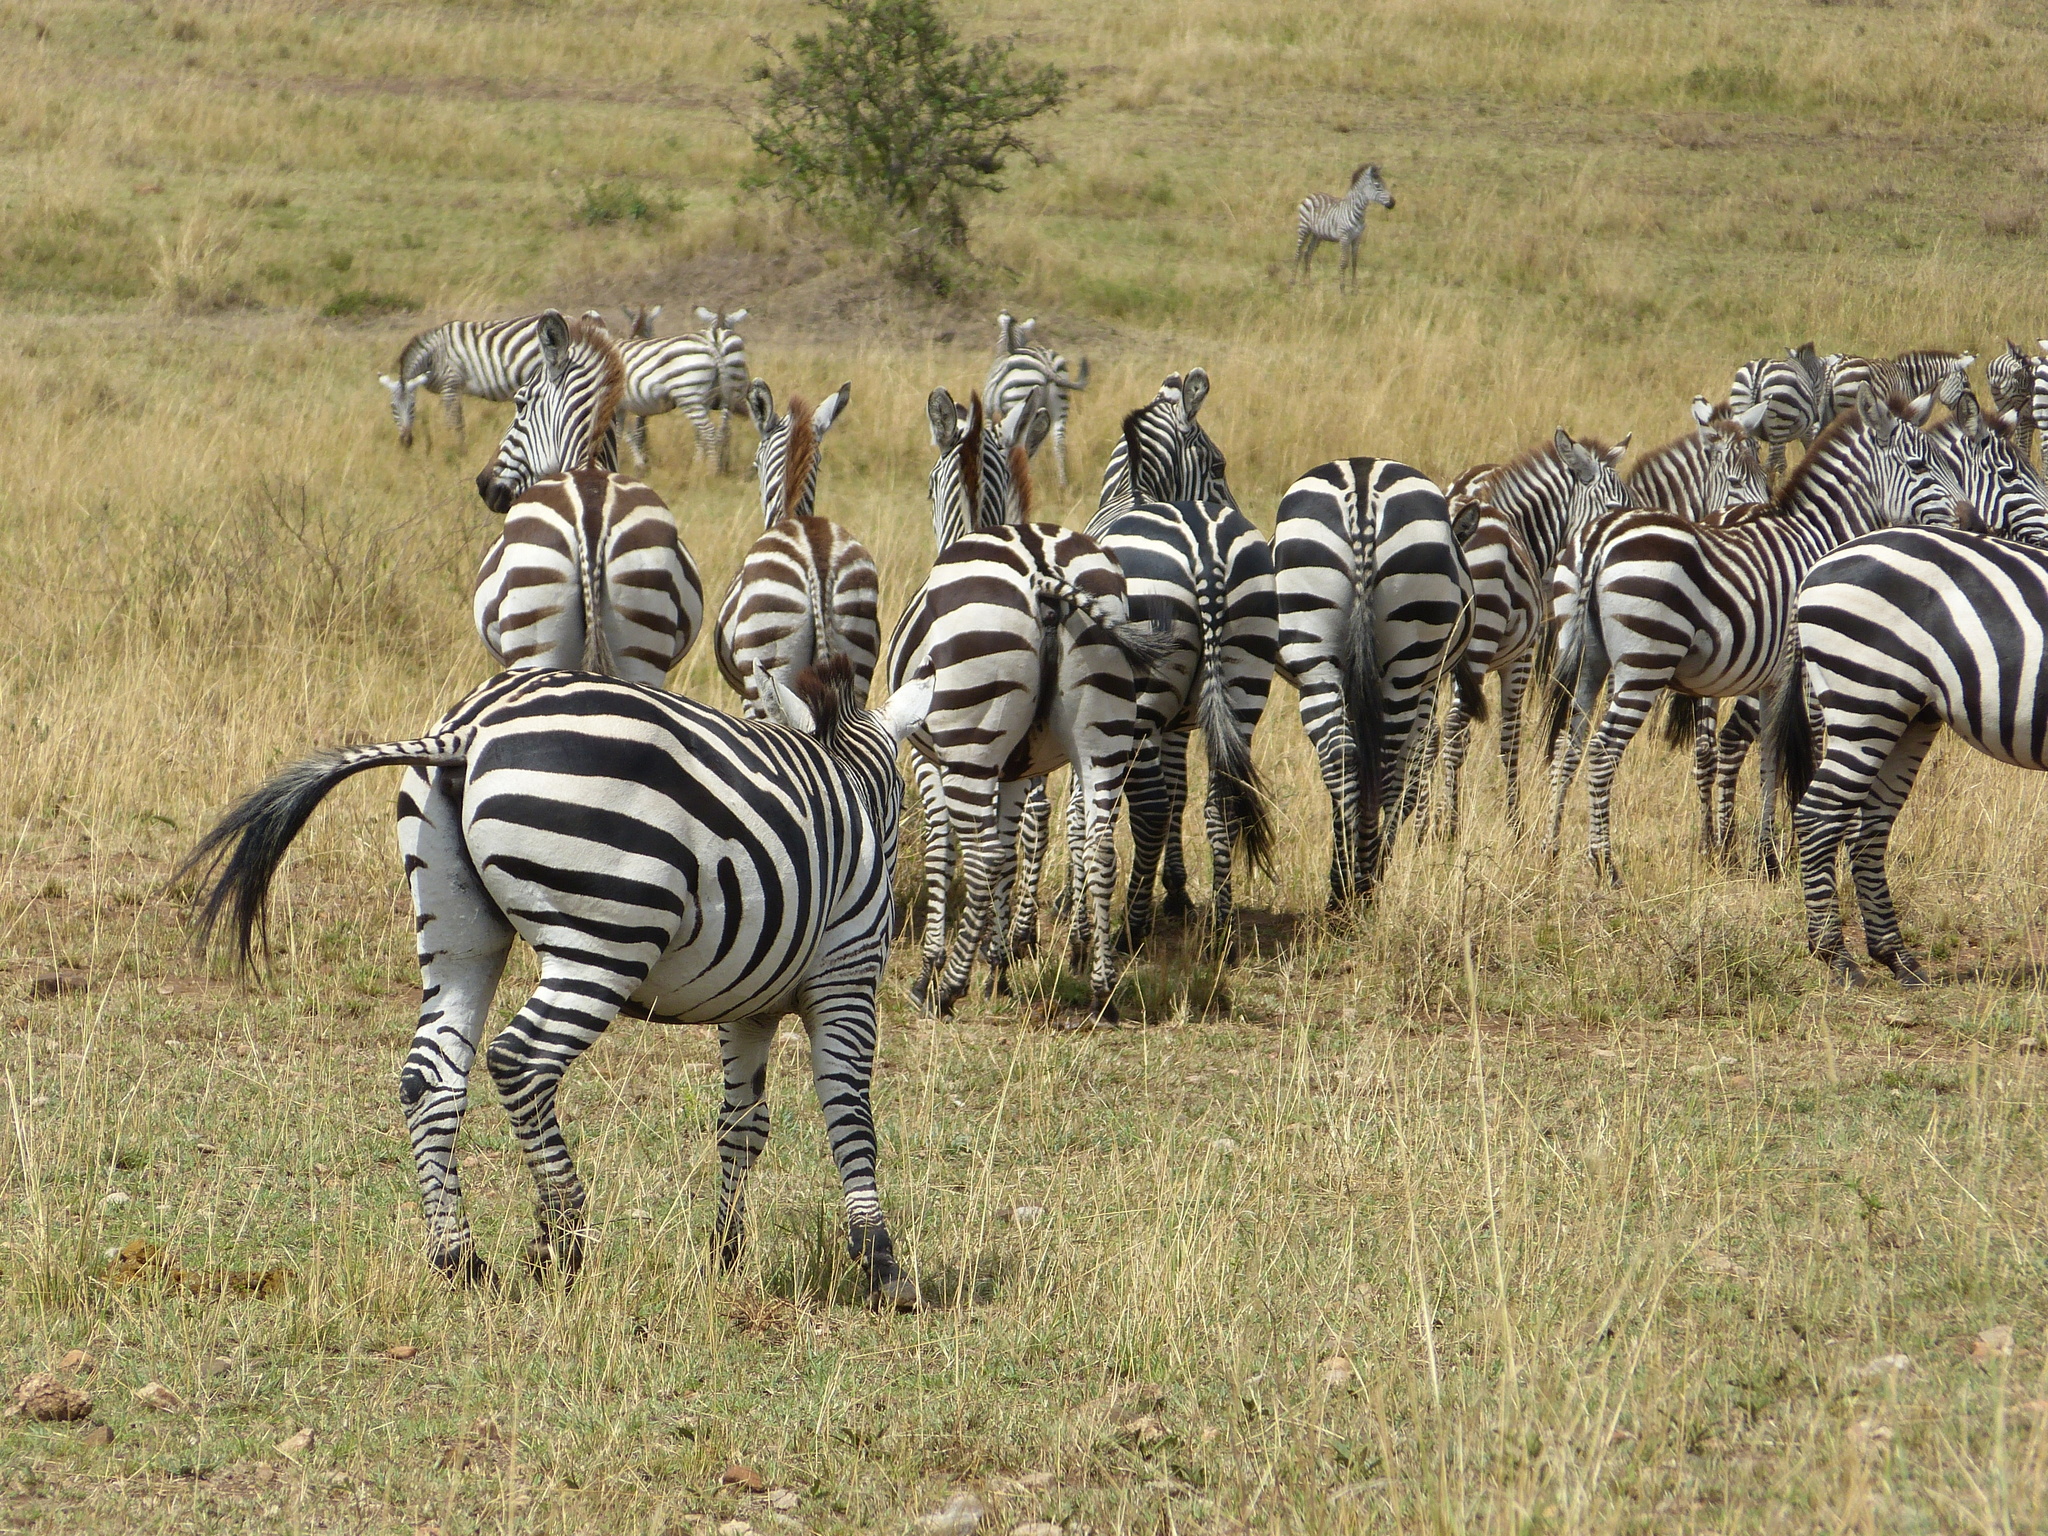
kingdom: Animalia
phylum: Chordata
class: Mammalia
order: Perissodactyla
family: Equidae
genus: Equus
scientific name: Equus quagga
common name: Plains zebra
